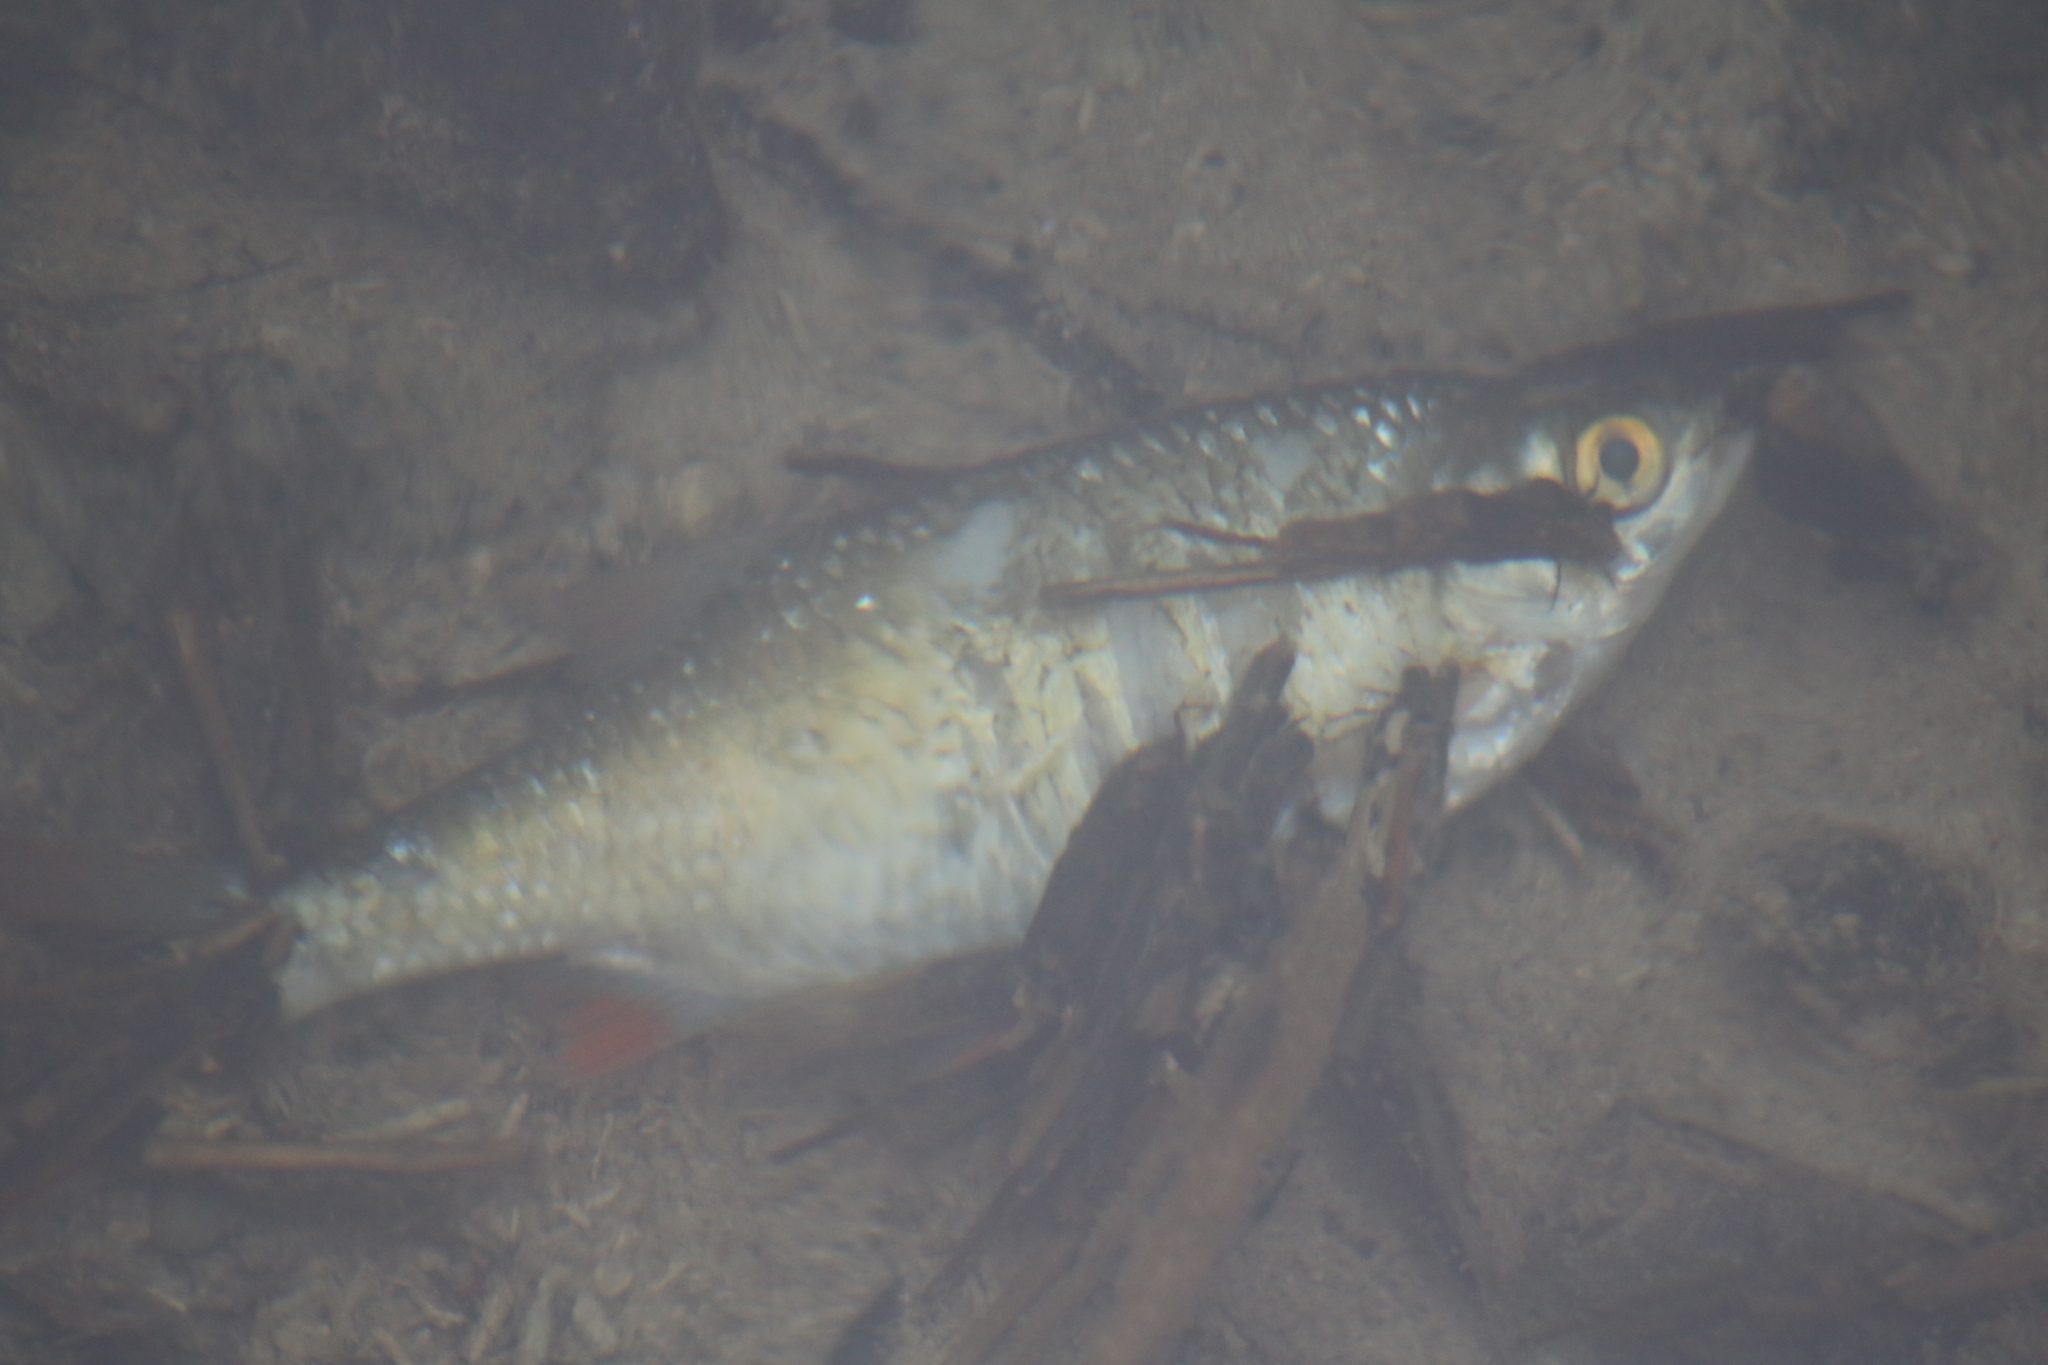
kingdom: Animalia
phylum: Chordata
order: Cypriniformes
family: Cyprinidae
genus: Scardinius
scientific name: Scardinius erythrophthalmus
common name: Rudd
